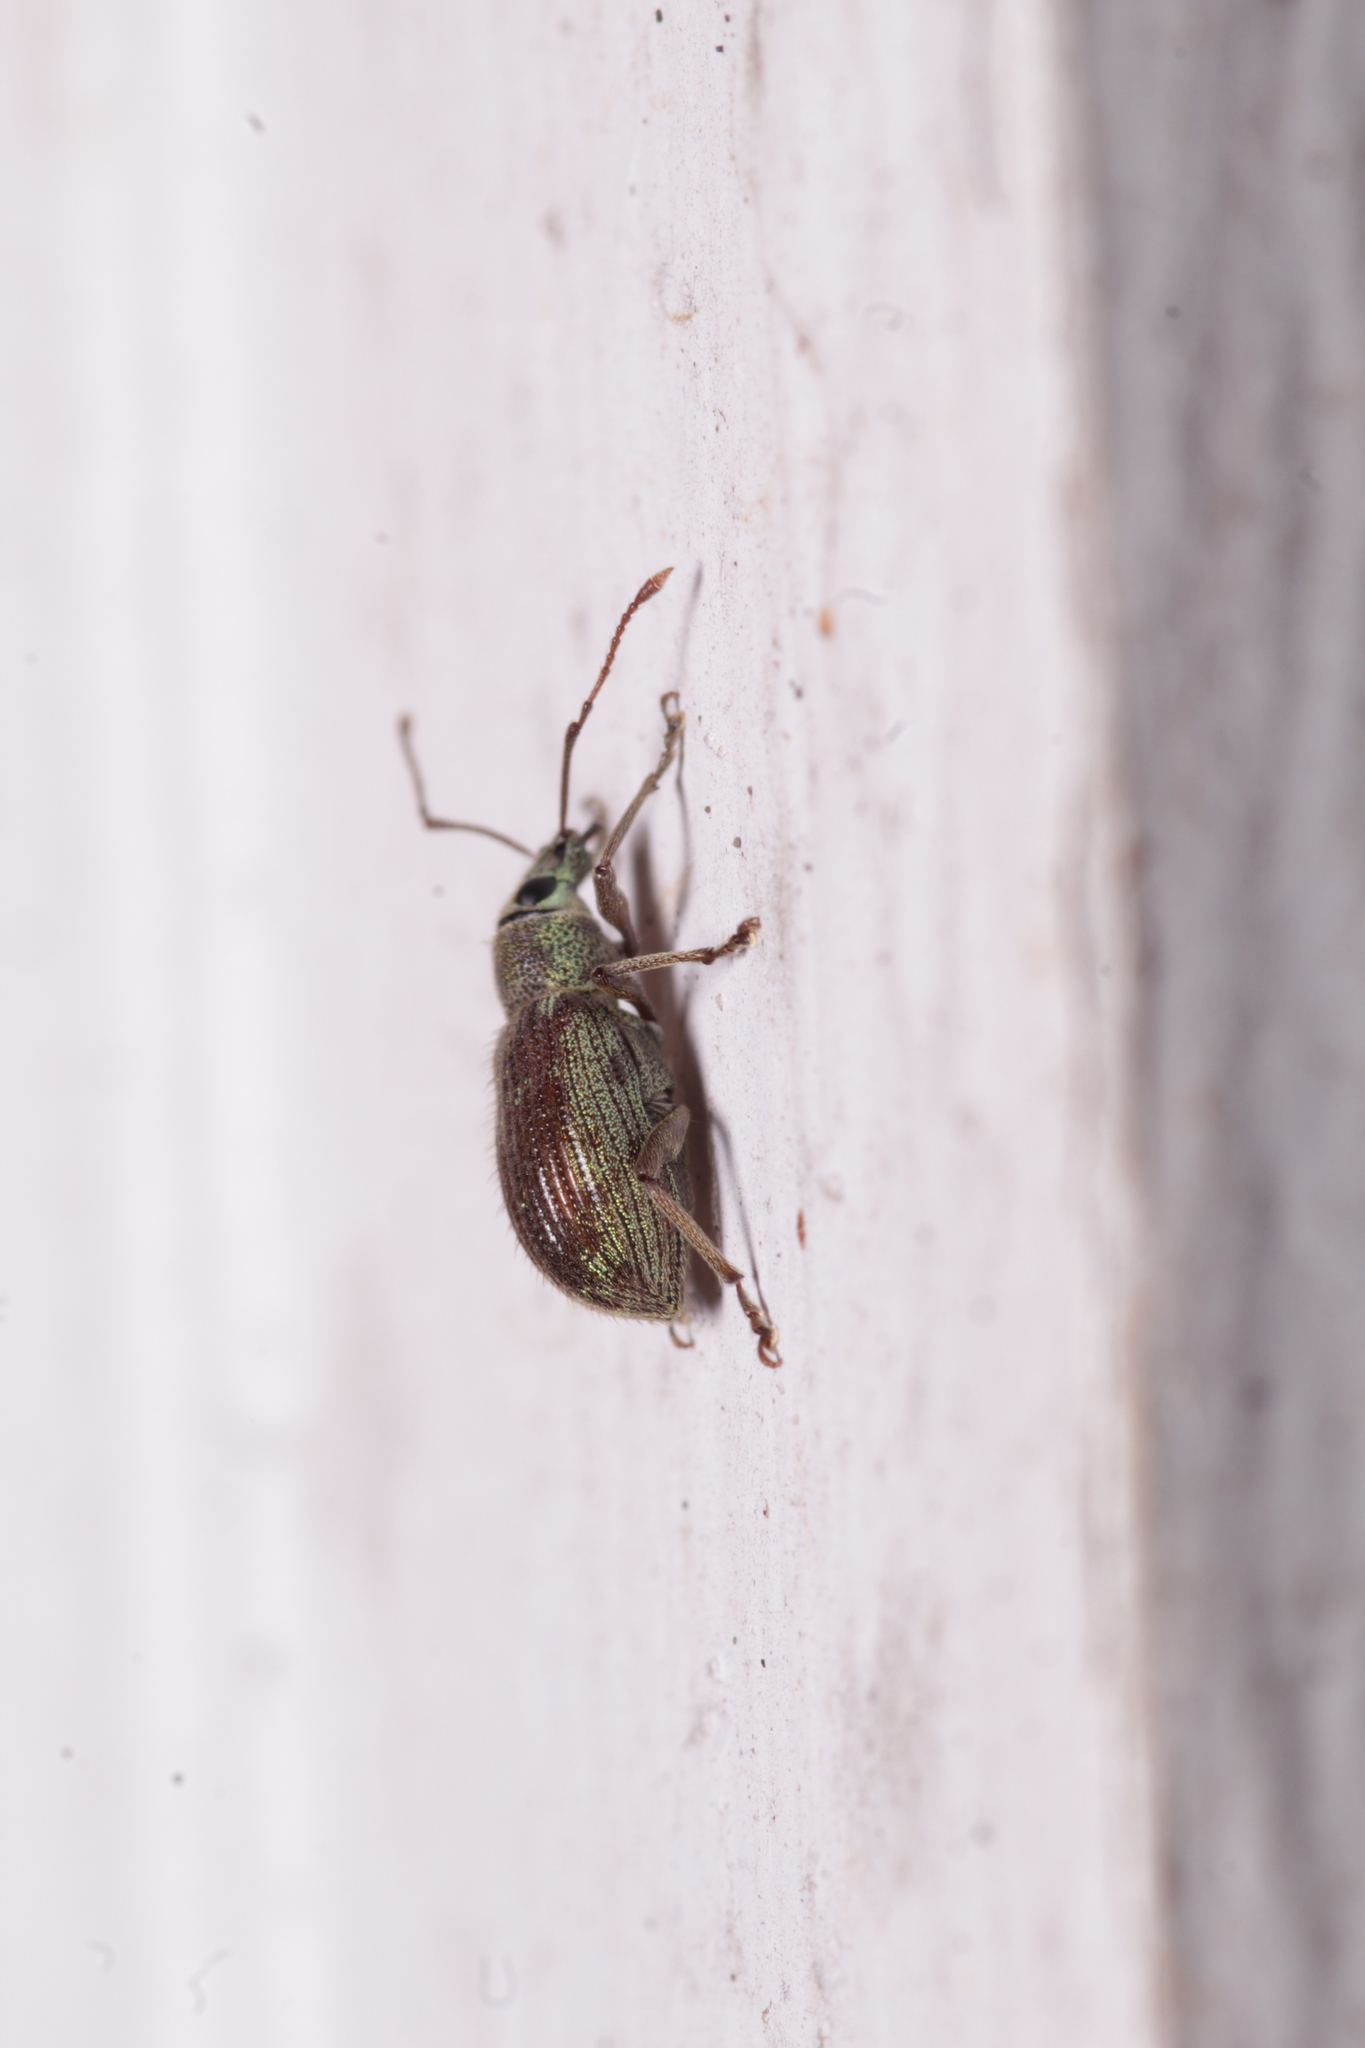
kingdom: Animalia
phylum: Arthropoda
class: Insecta
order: Coleoptera
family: Curculionidae
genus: Cyrtepistomus
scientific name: Cyrtepistomus castaneus
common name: Weevil
